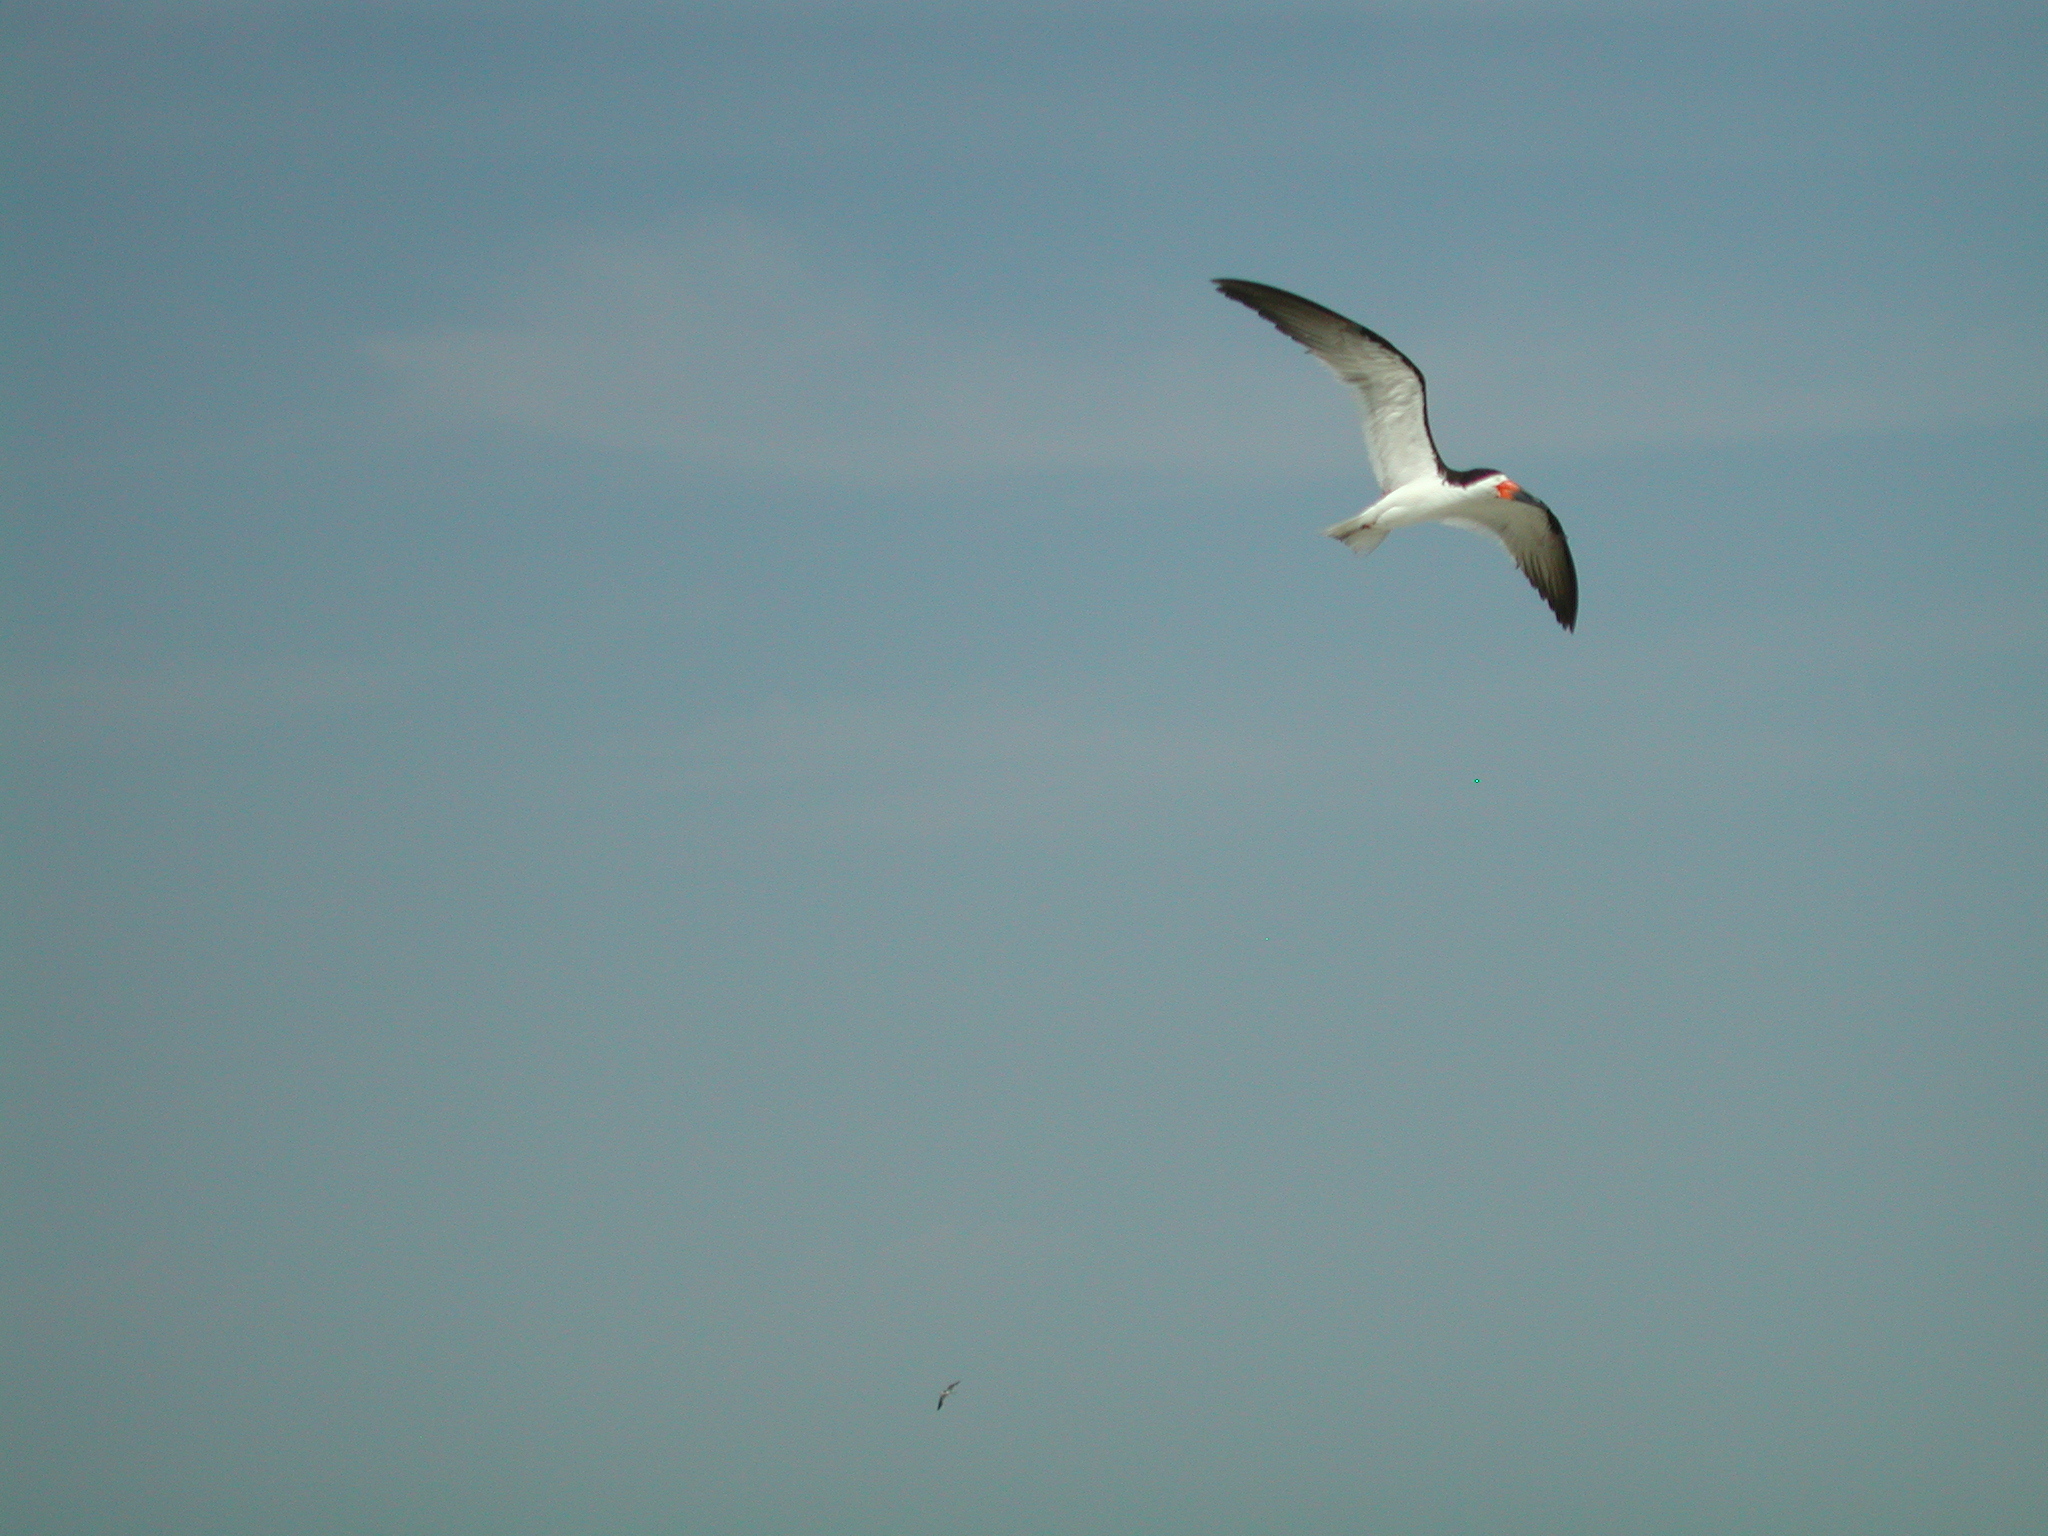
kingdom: Animalia
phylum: Chordata
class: Aves
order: Charadriiformes
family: Laridae
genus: Rynchops
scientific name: Rynchops niger
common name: Black skimmer
